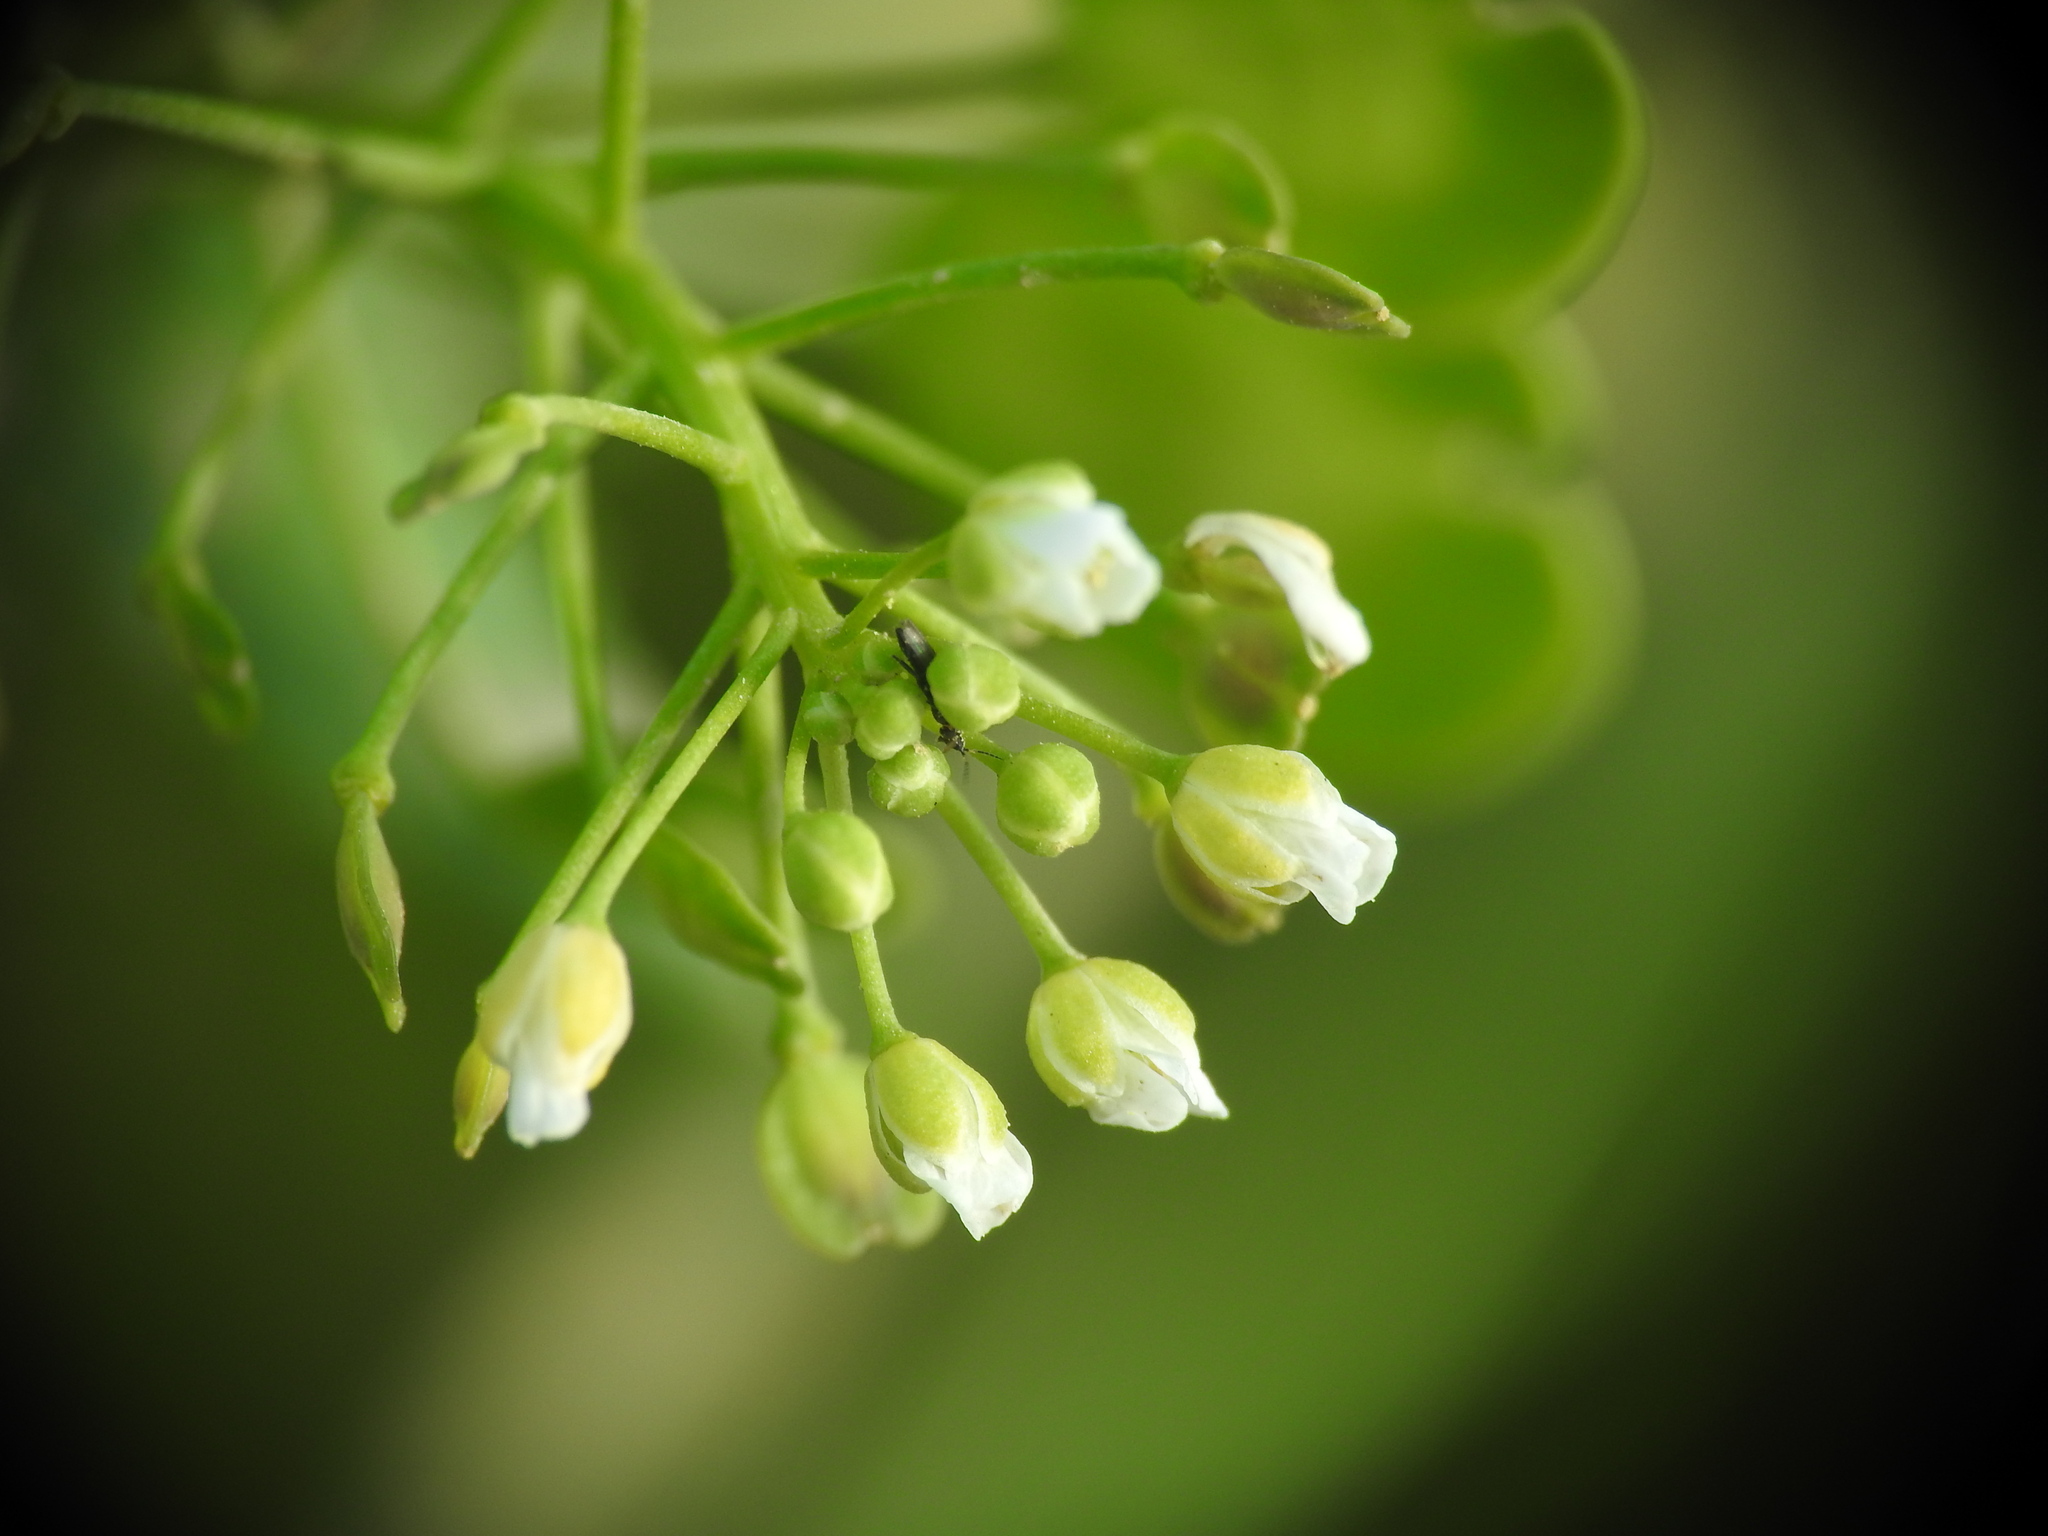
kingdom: Plantae
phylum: Tracheophyta
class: Magnoliopsida
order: Brassicales
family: Brassicaceae
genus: Thlaspi
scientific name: Thlaspi arvense
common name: Field pennycress
